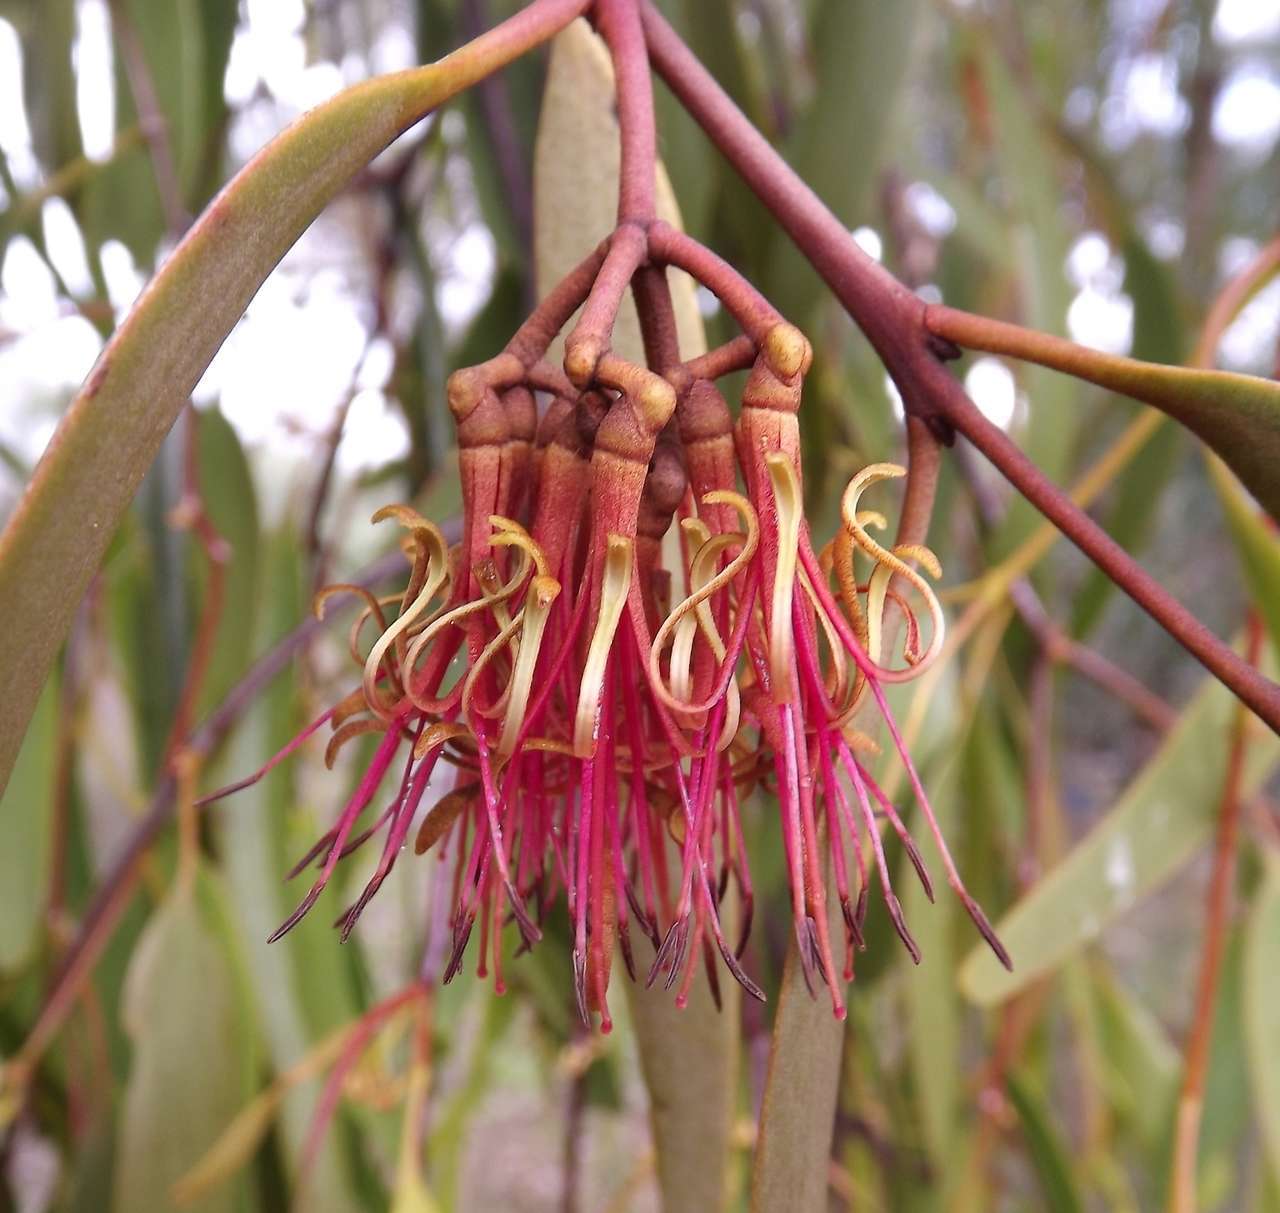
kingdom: Plantae
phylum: Tracheophyta
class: Magnoliopsida
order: Santalales
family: Loranthaceae
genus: Amyema
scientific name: Amyema pendula
